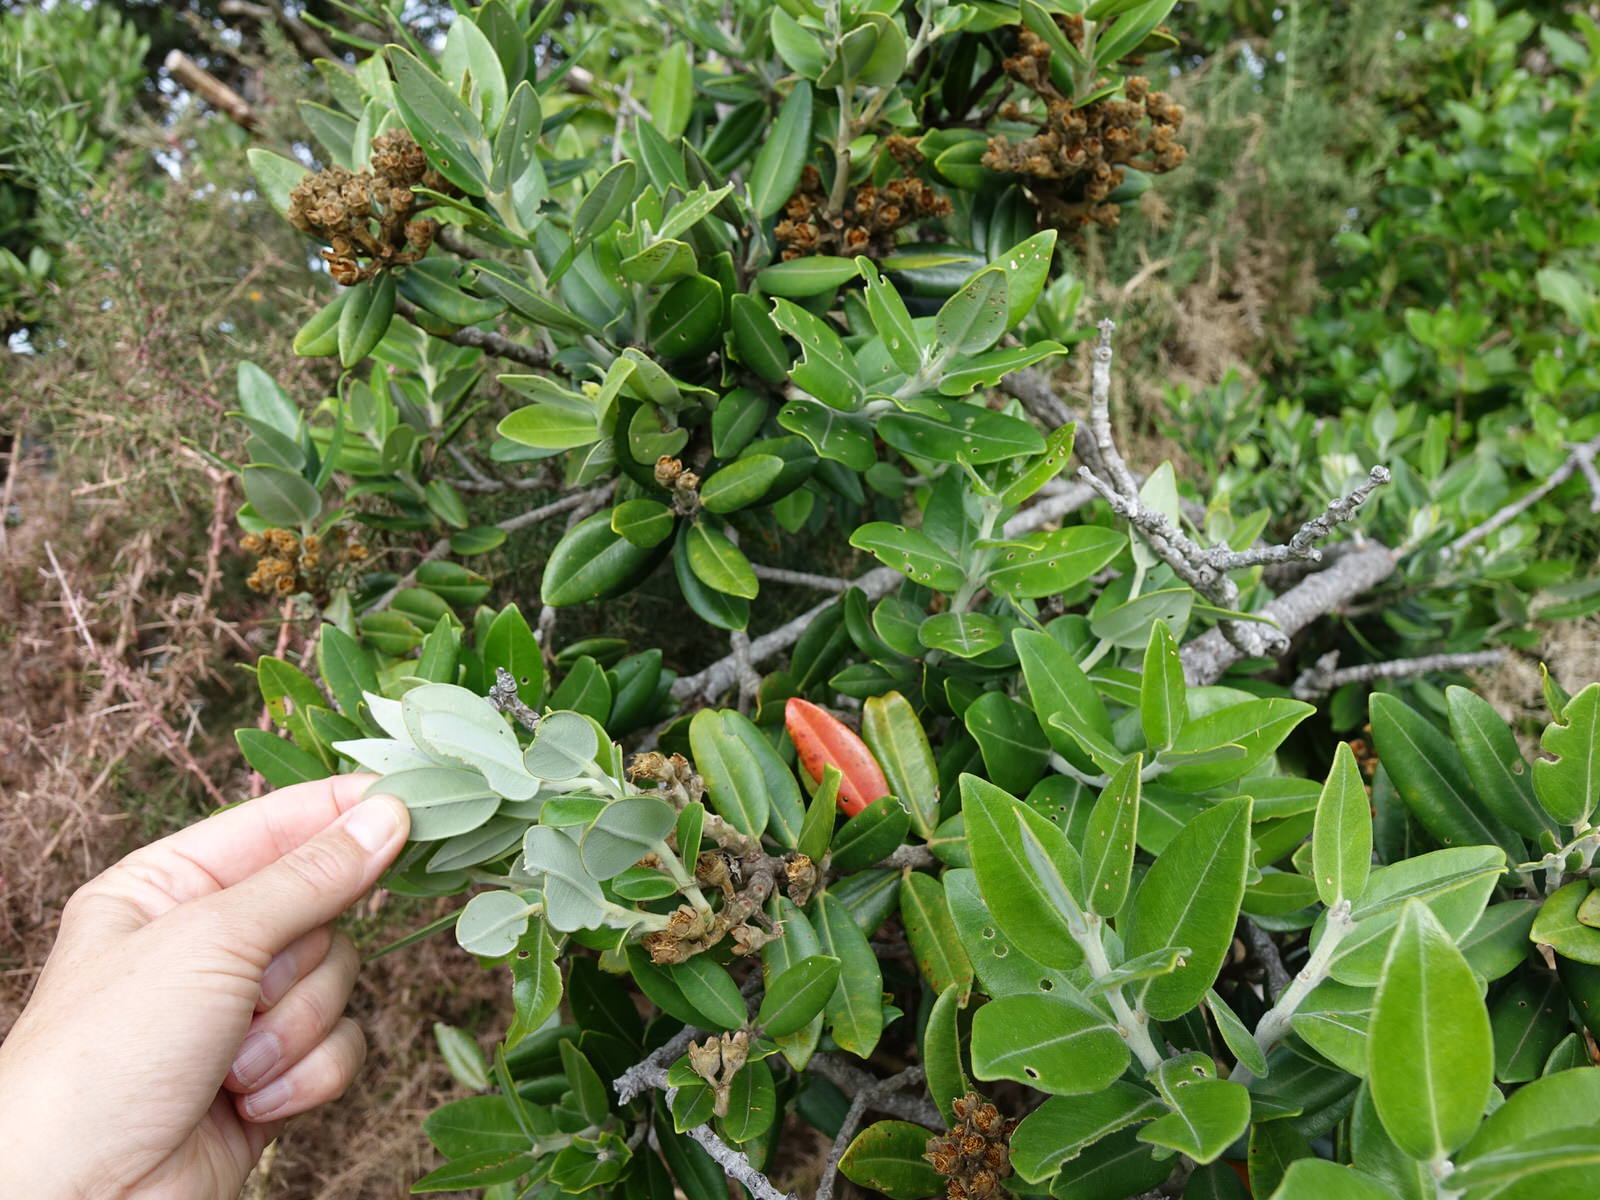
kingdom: Plantae
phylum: Tracheophyta
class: Magnoliopsida
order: Myrtales
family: Myrtaceae
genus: Metrosideros
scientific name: Metrosideros excelsa
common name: New zealand christmastree
